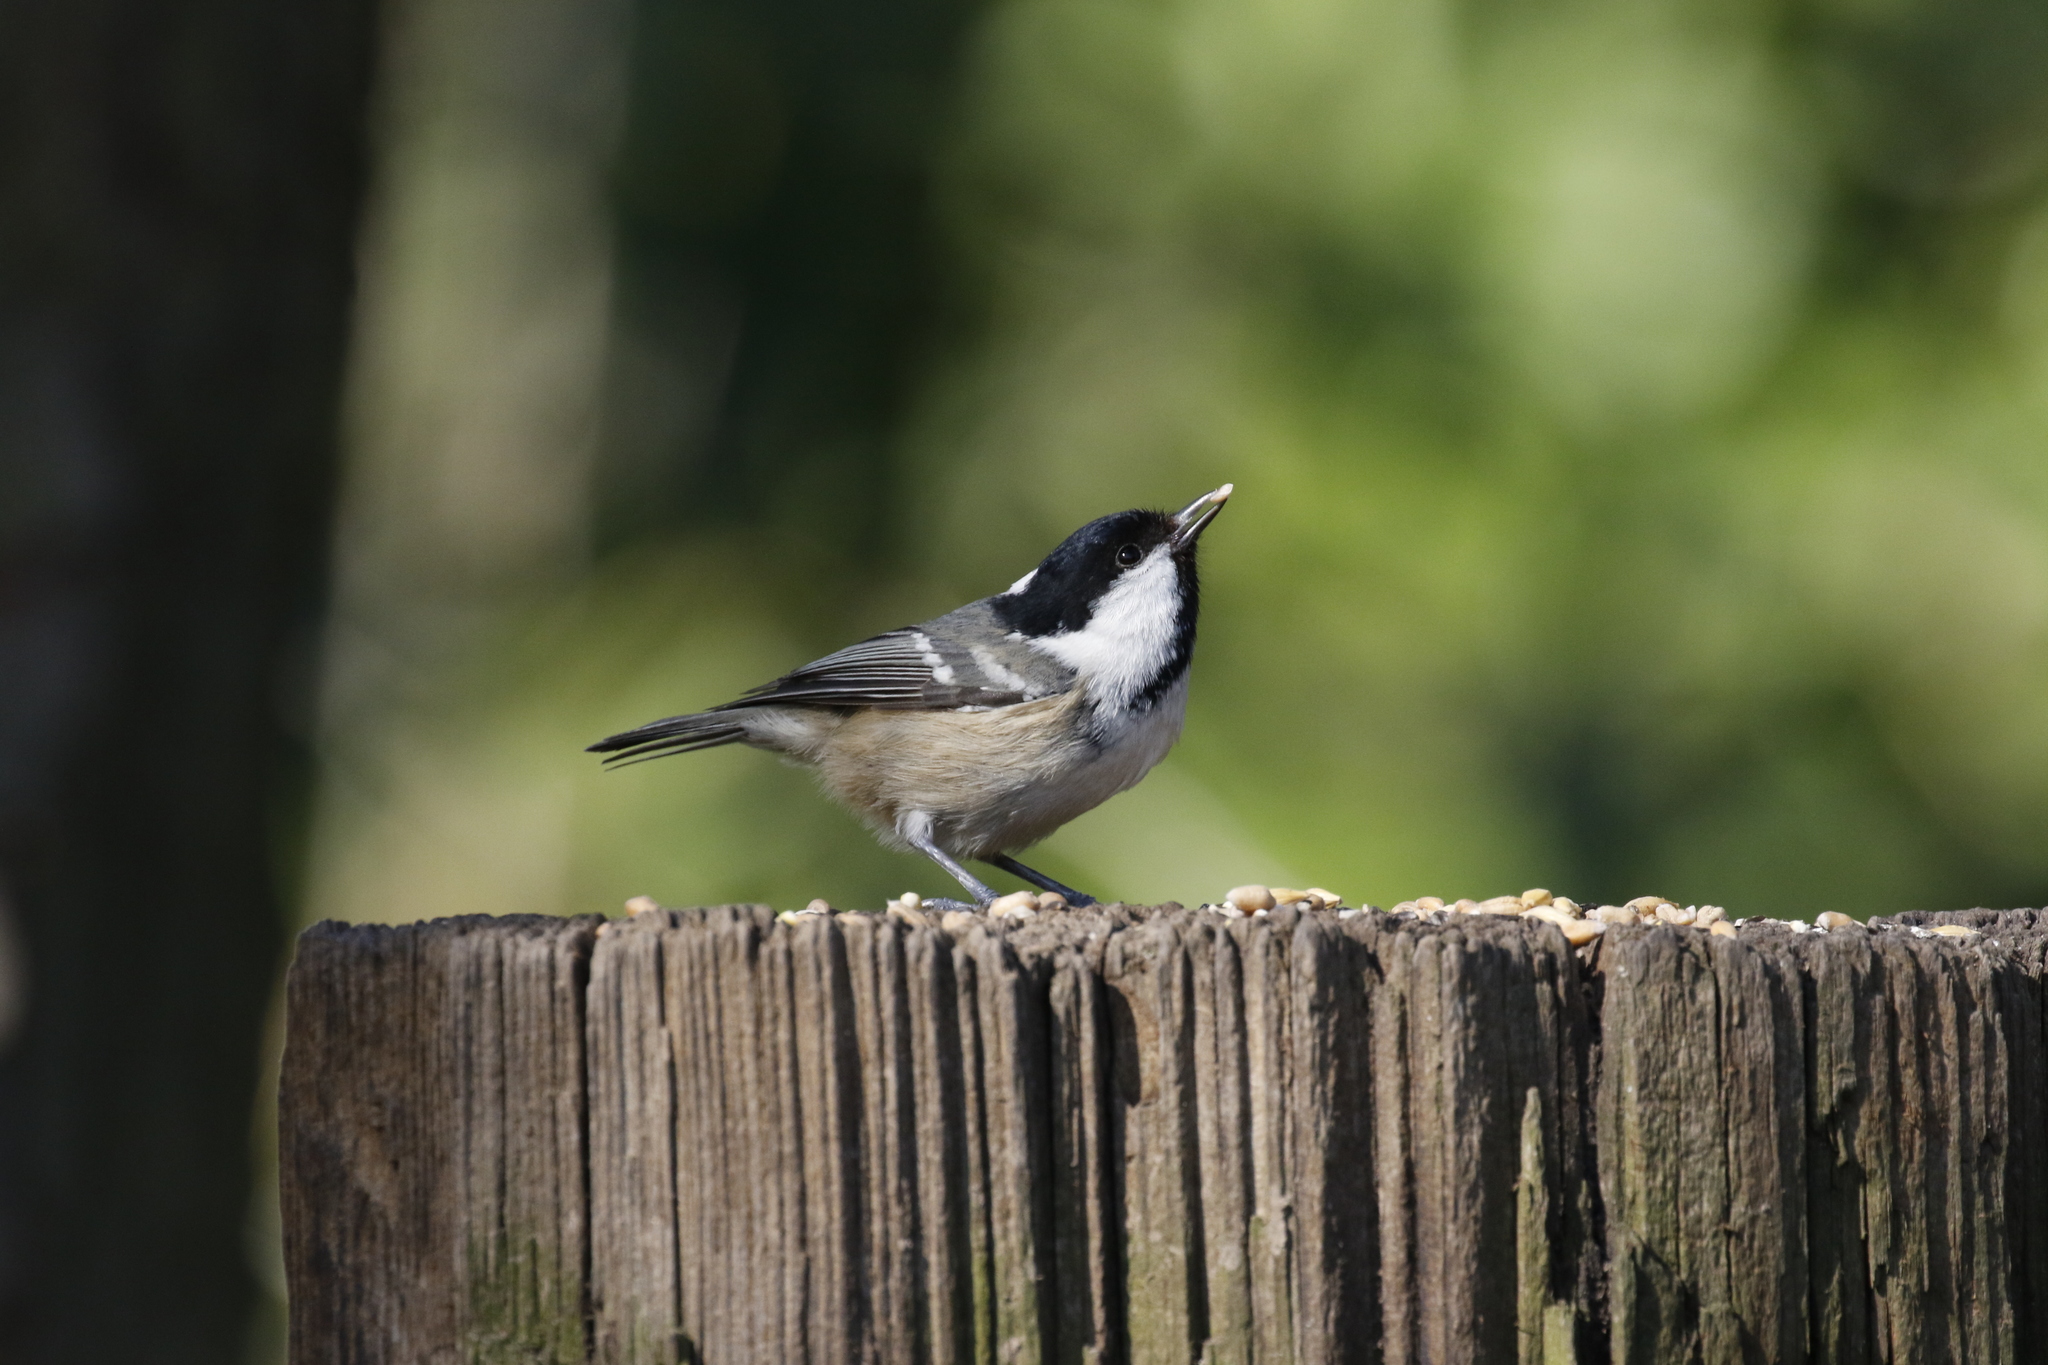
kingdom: Animalia
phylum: Chordata
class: Aves
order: Passeriformes
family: Paridae
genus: Periparus
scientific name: Periparus ater
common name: Coal tit
